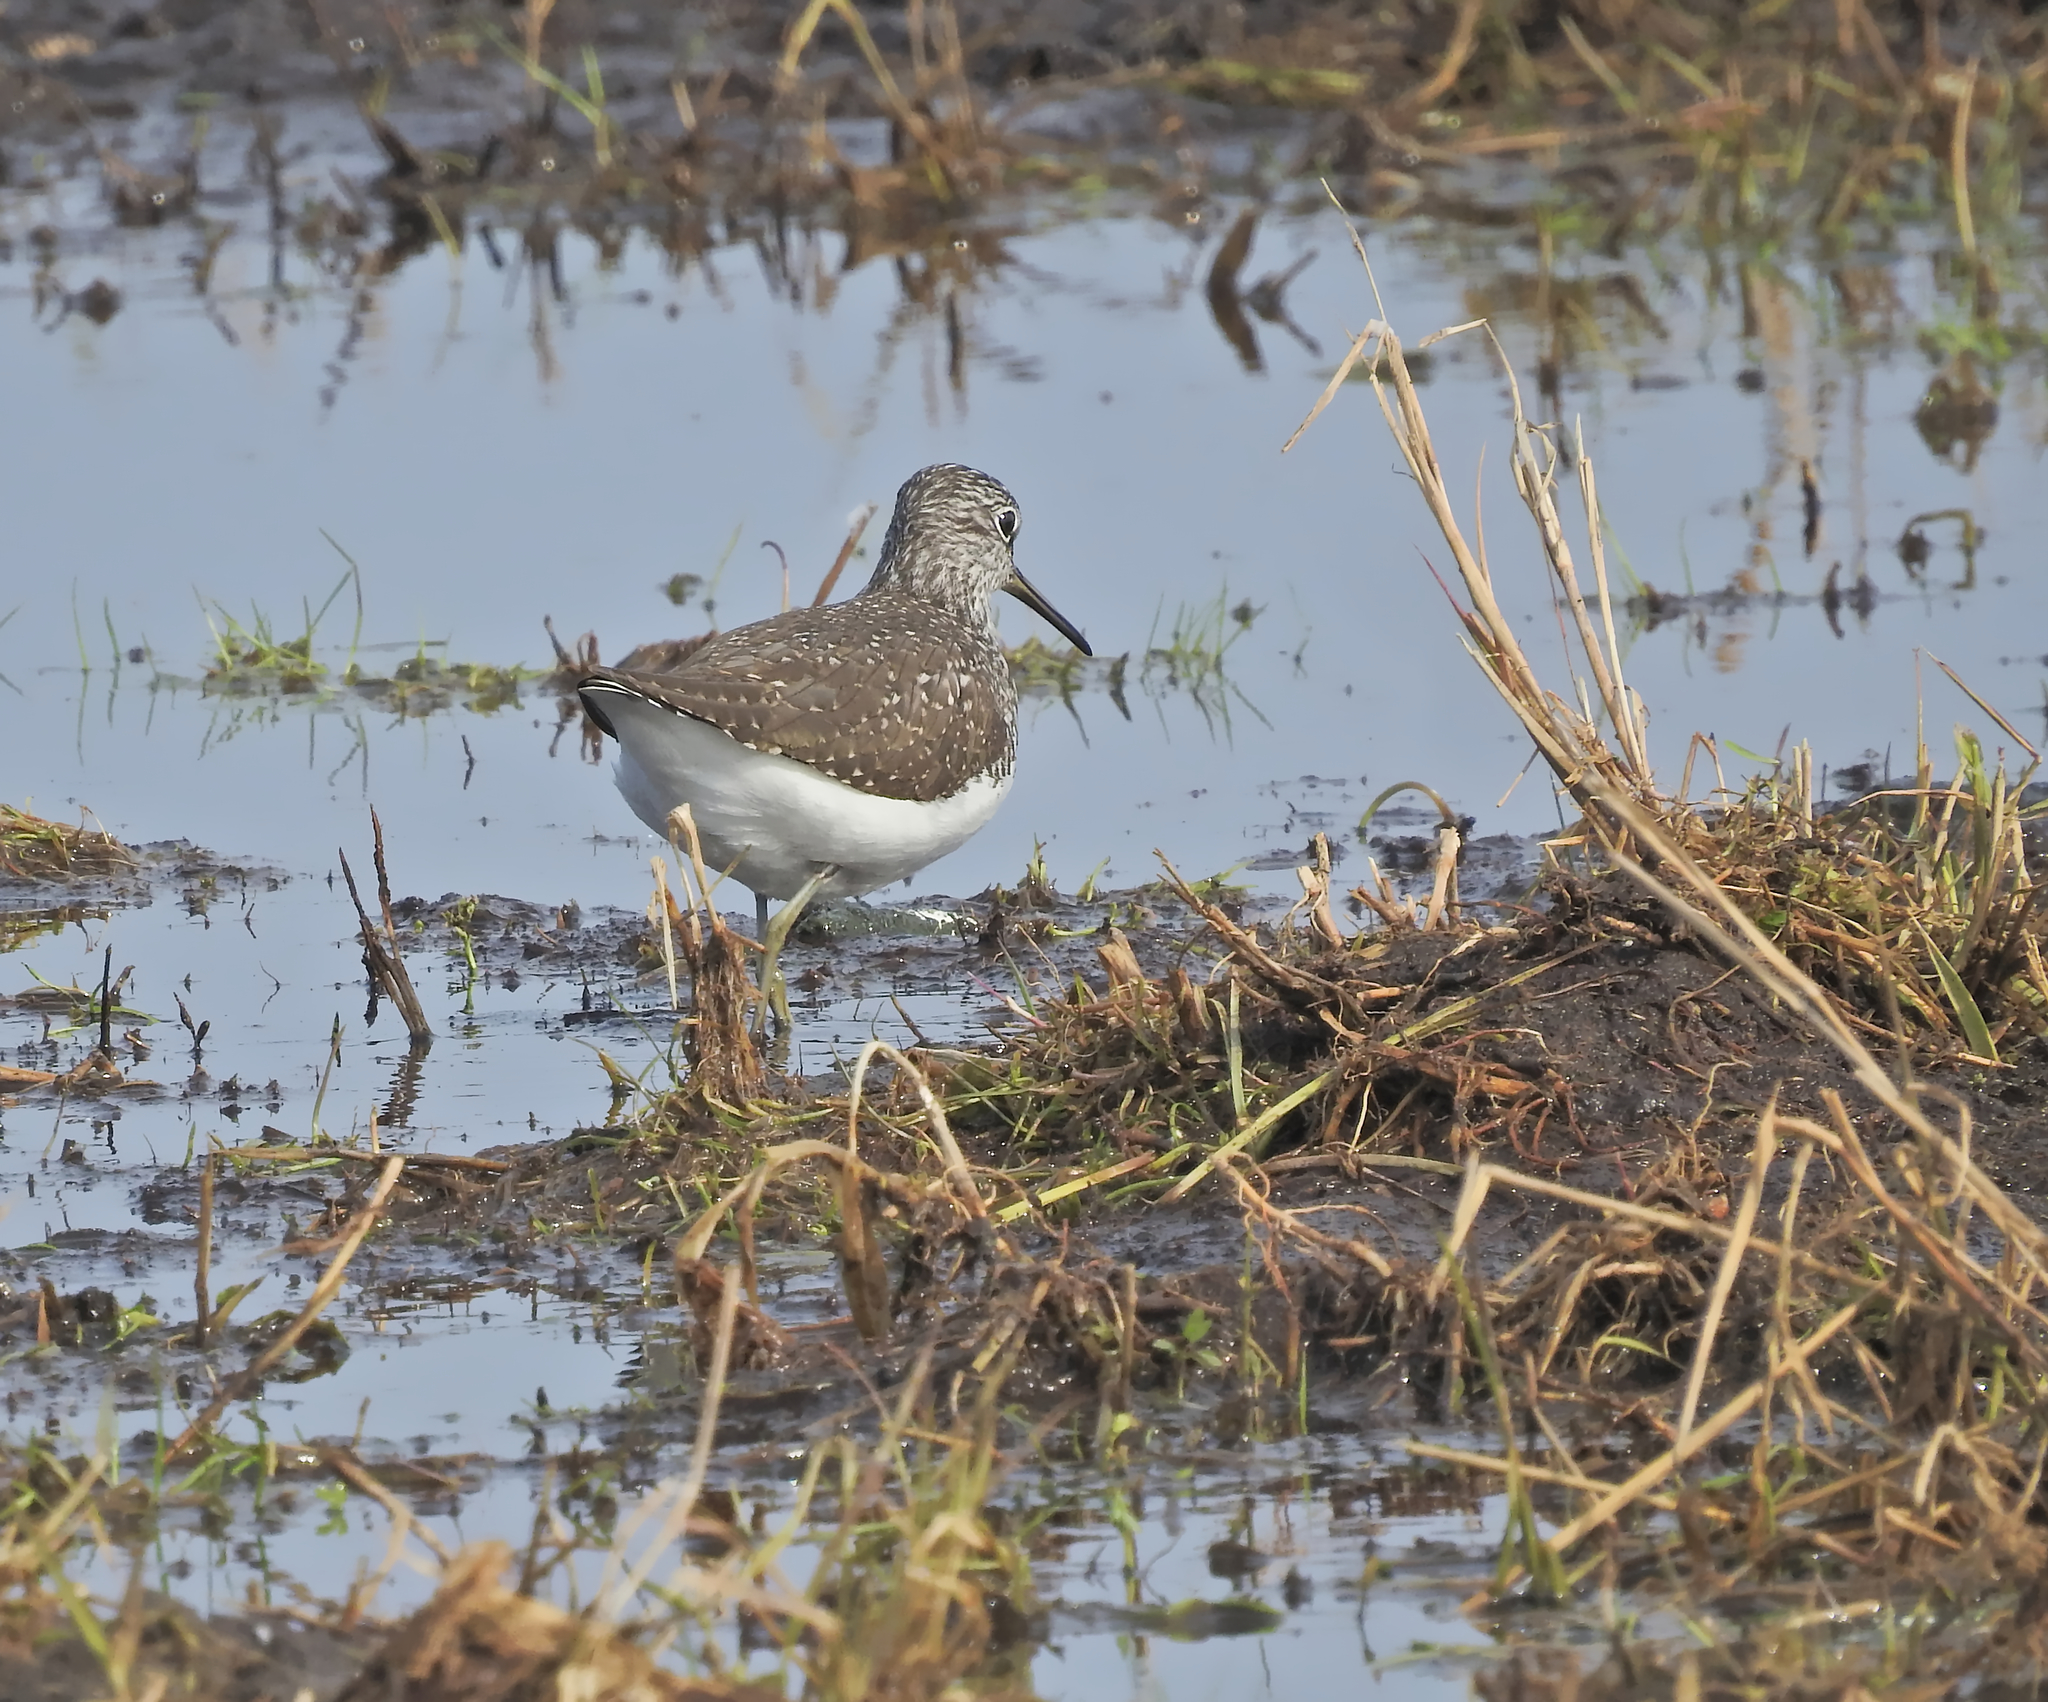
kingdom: Animalia
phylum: Chordata
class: Aves
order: Charadriiformes
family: Scolopacidae
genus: Tringa
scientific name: Tringa ochropus
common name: Green sandpiper
